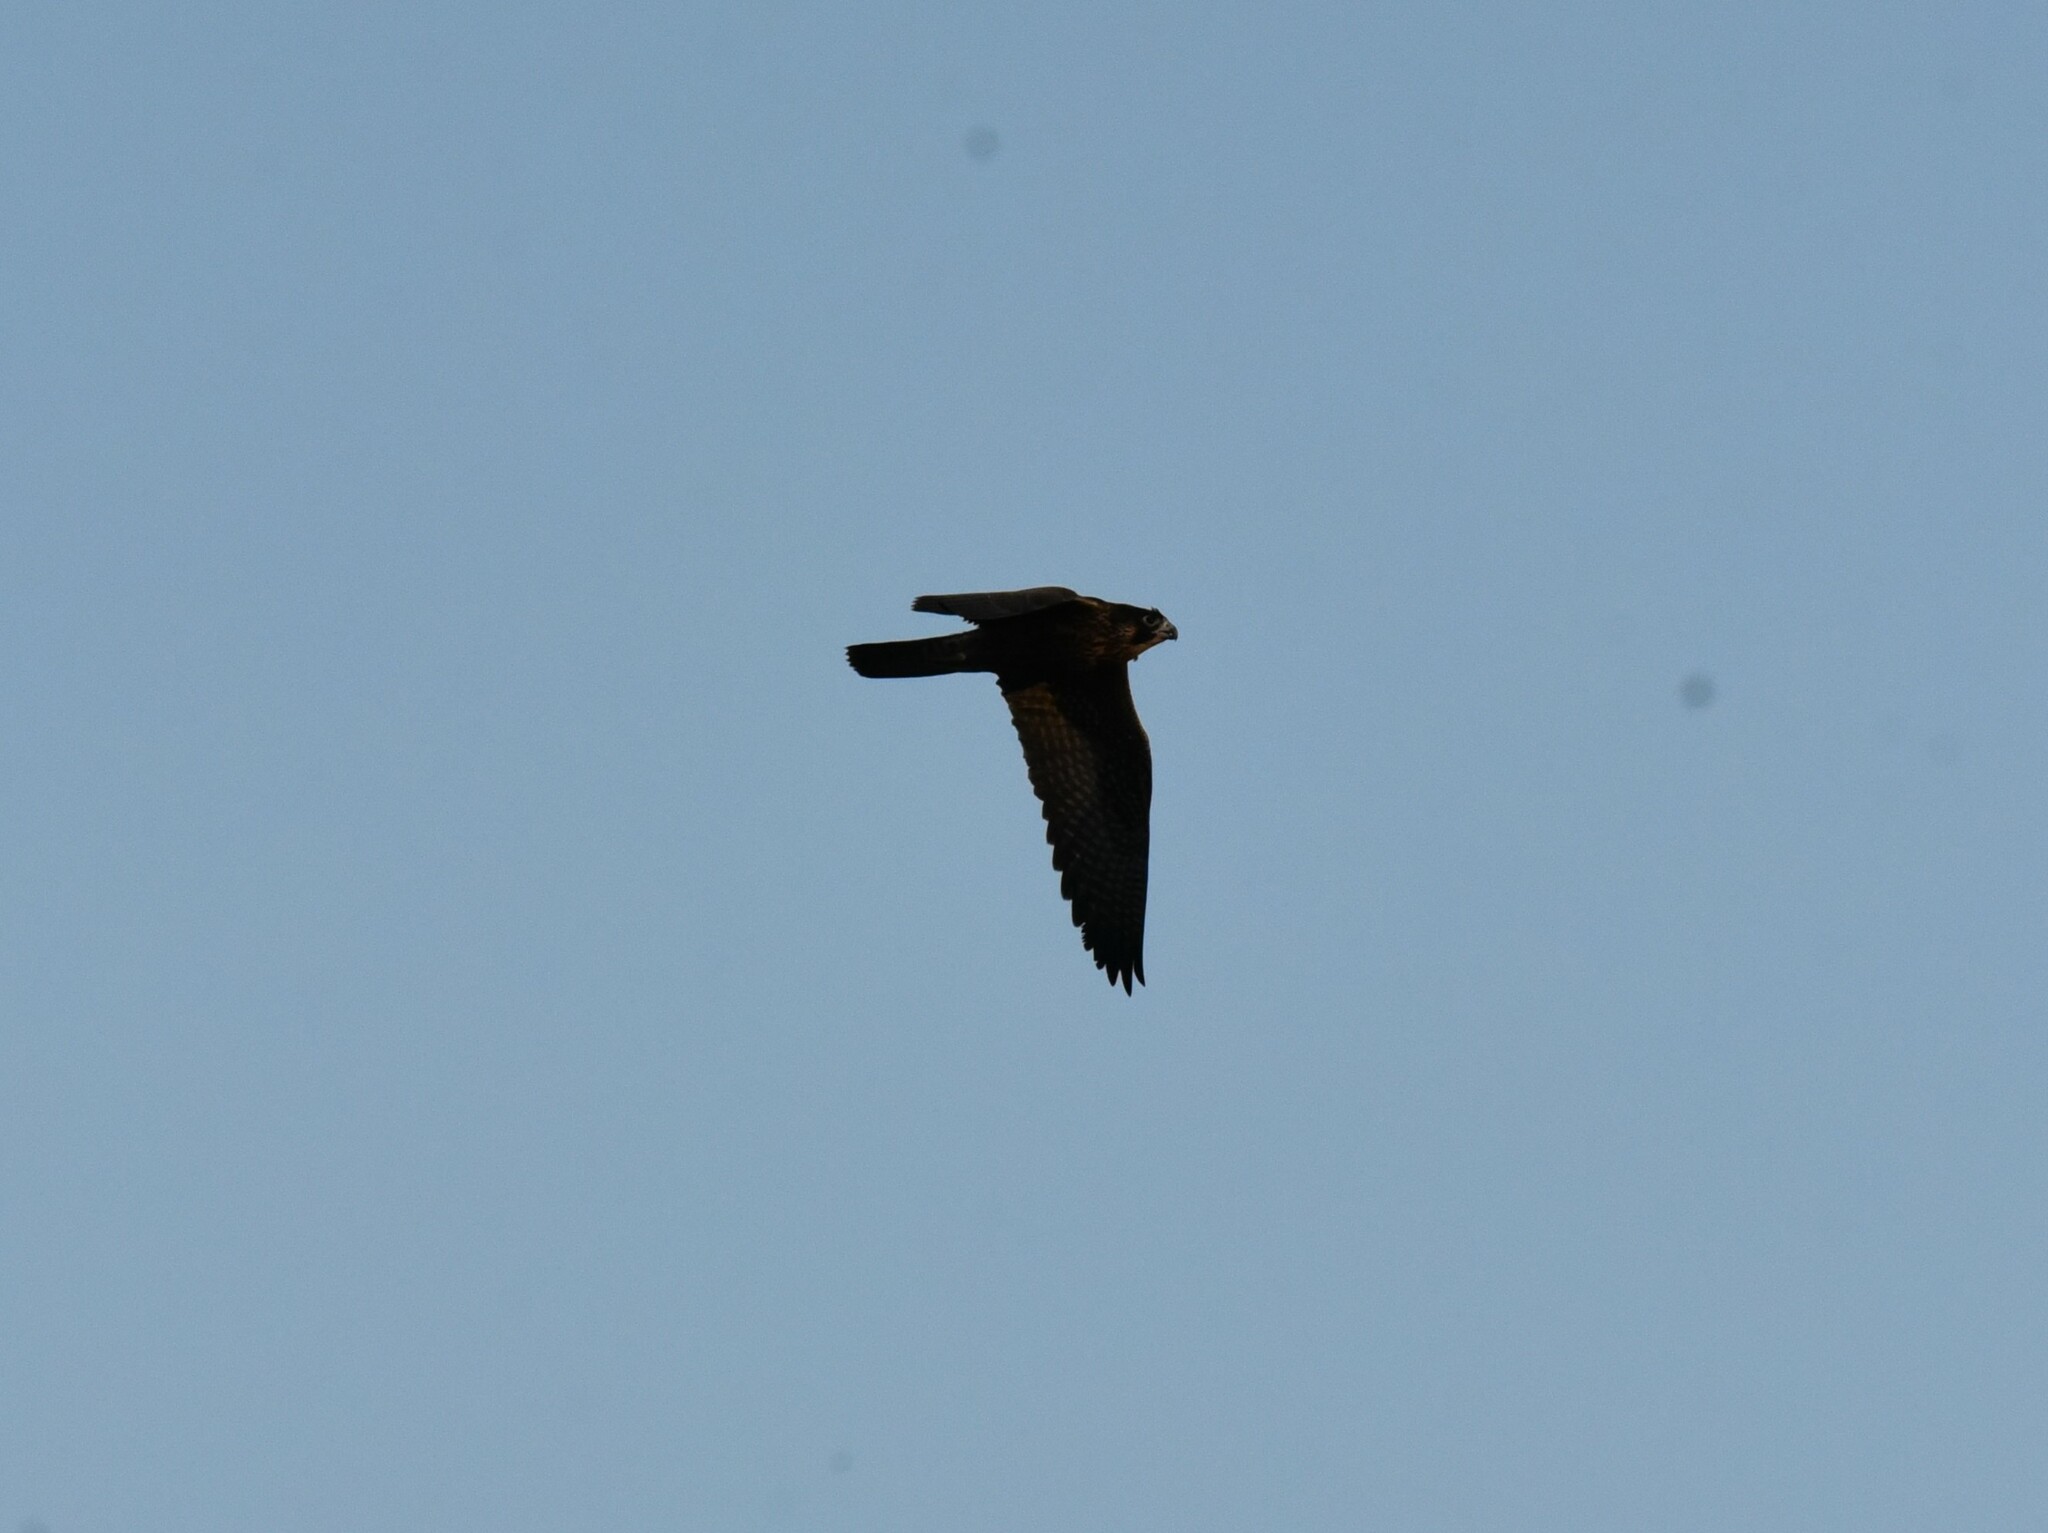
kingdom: Animalia
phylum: Chordata
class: Aves
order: Falconiformes
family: Falconidae
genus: Falco
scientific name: Falco peregrinus
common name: Peregrine falcon
